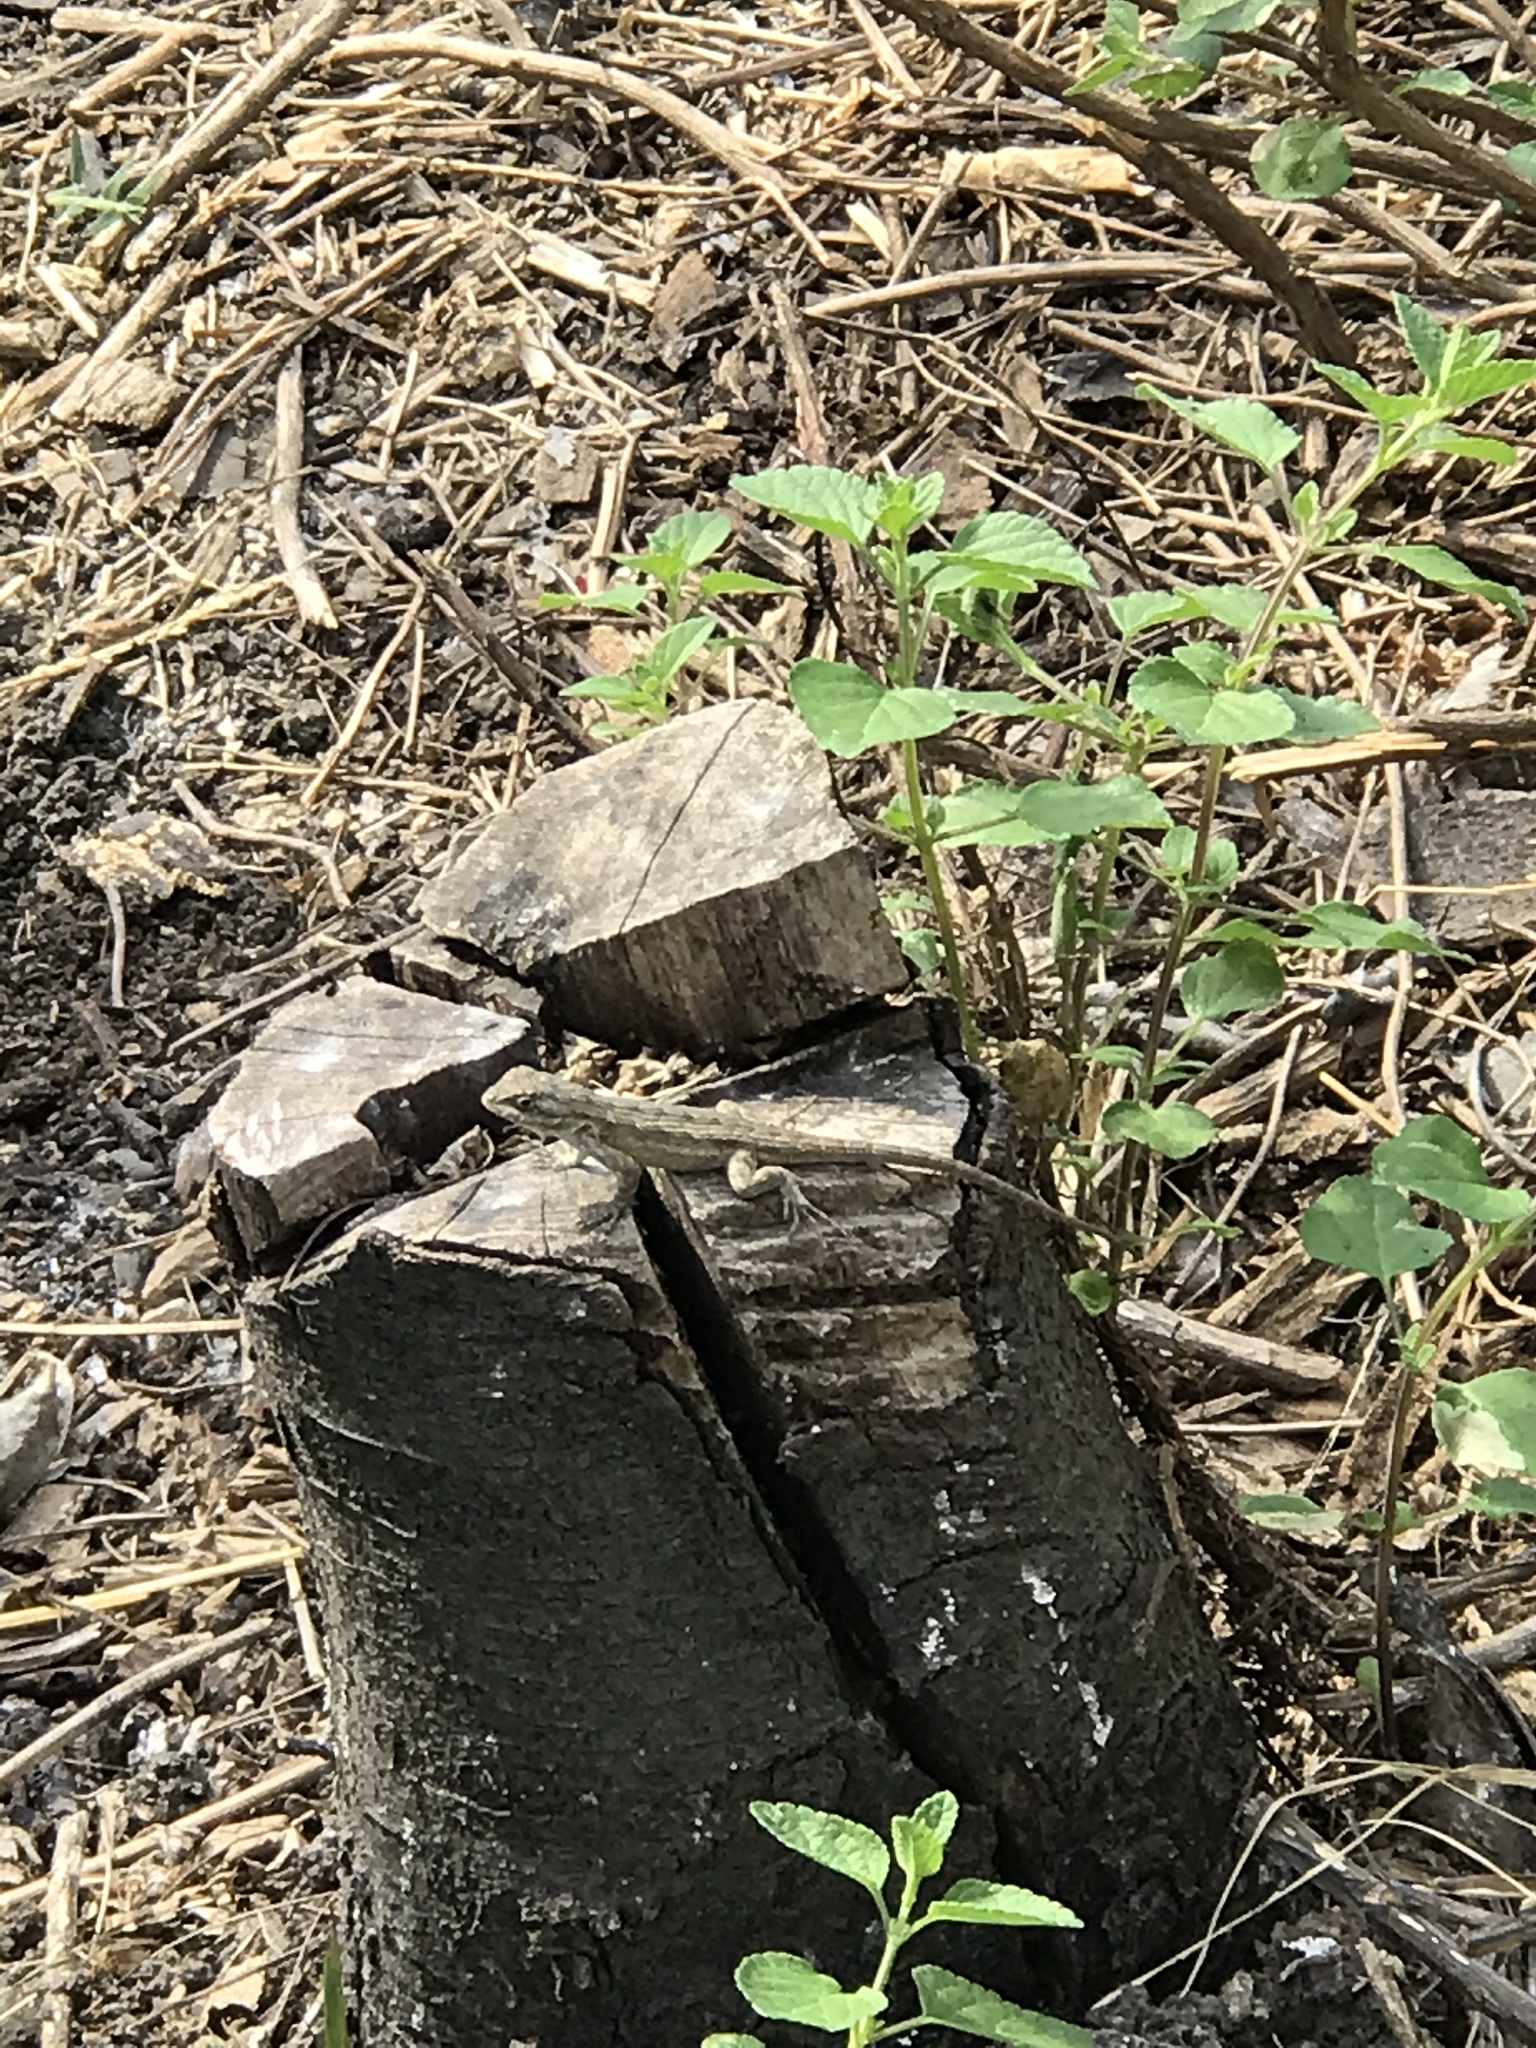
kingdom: Animalia
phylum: Chordata
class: Squamata
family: Phrynosomatidae
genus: Sceloporus
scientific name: Sceloporus occidentalis
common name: Western fence lizard
